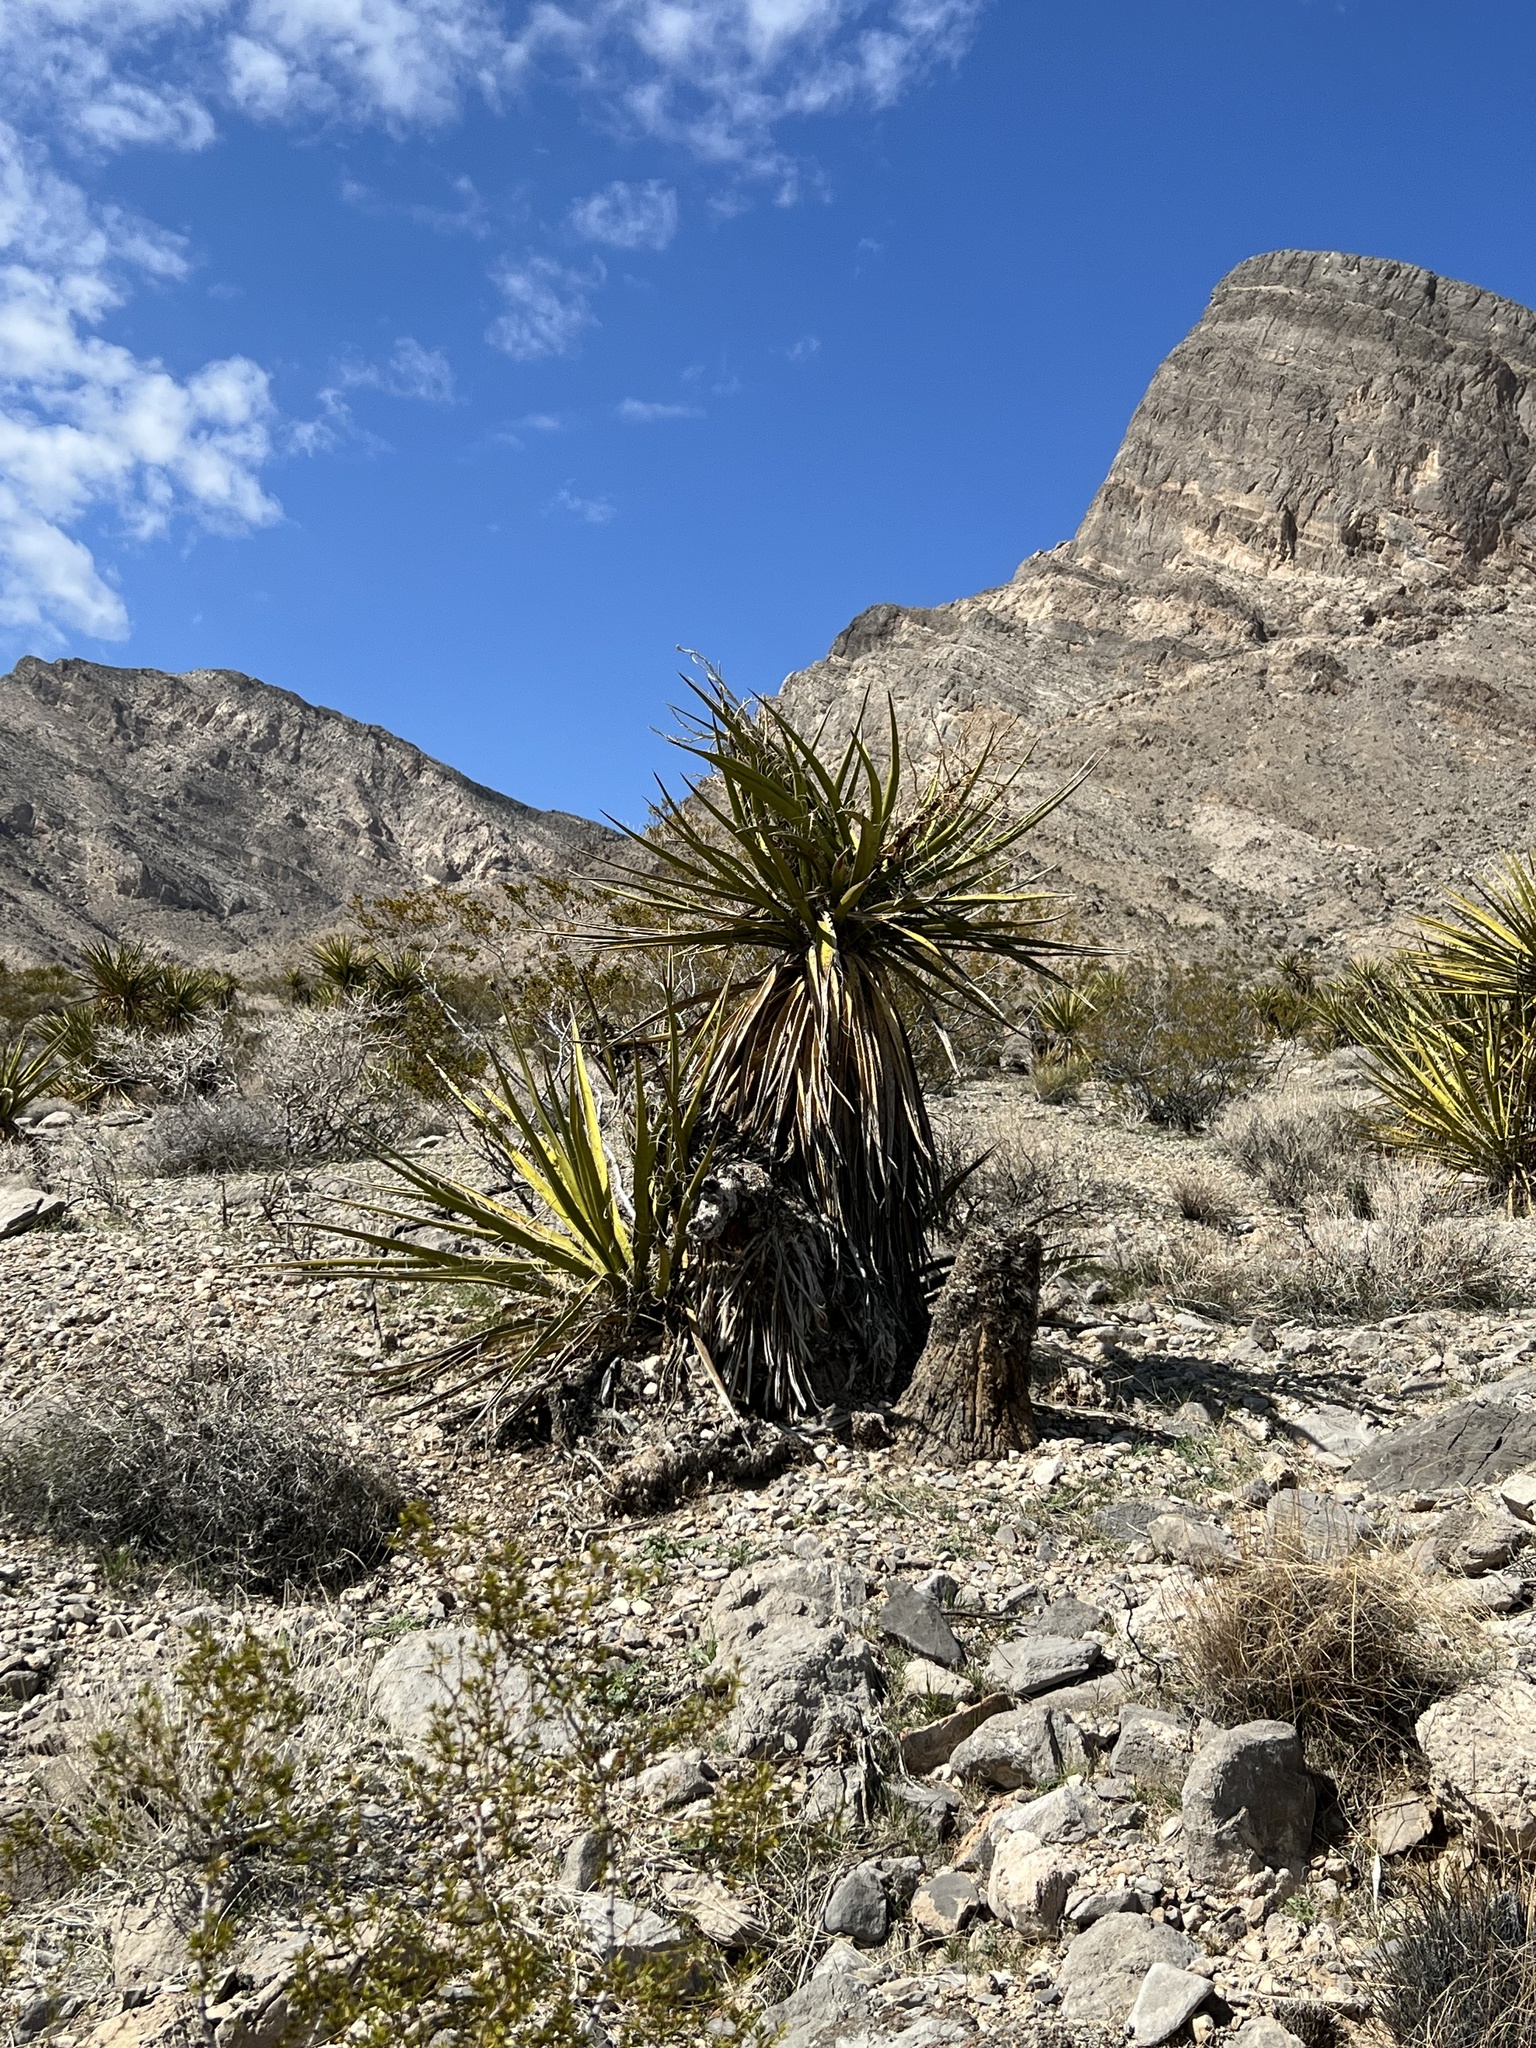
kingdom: Plantae
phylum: Tracheophyta
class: Liliopsida
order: Asparagales
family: Asparagaceae
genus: Yucca
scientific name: Yucca schidigera
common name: Mojave yucca
